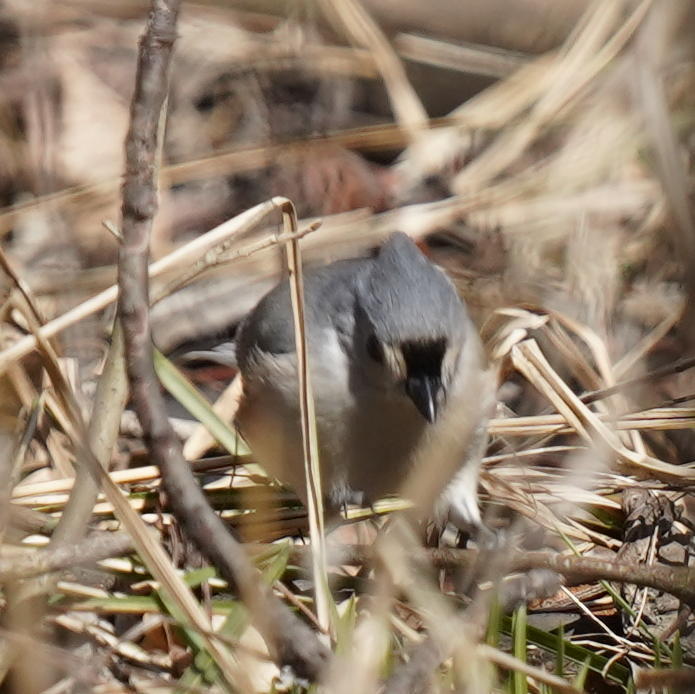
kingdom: Animalia
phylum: Chordata
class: Aves
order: Passeriformes
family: Paridae
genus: Baeolophus
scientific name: Baeolophus bicolor
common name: Tufted titmouse
